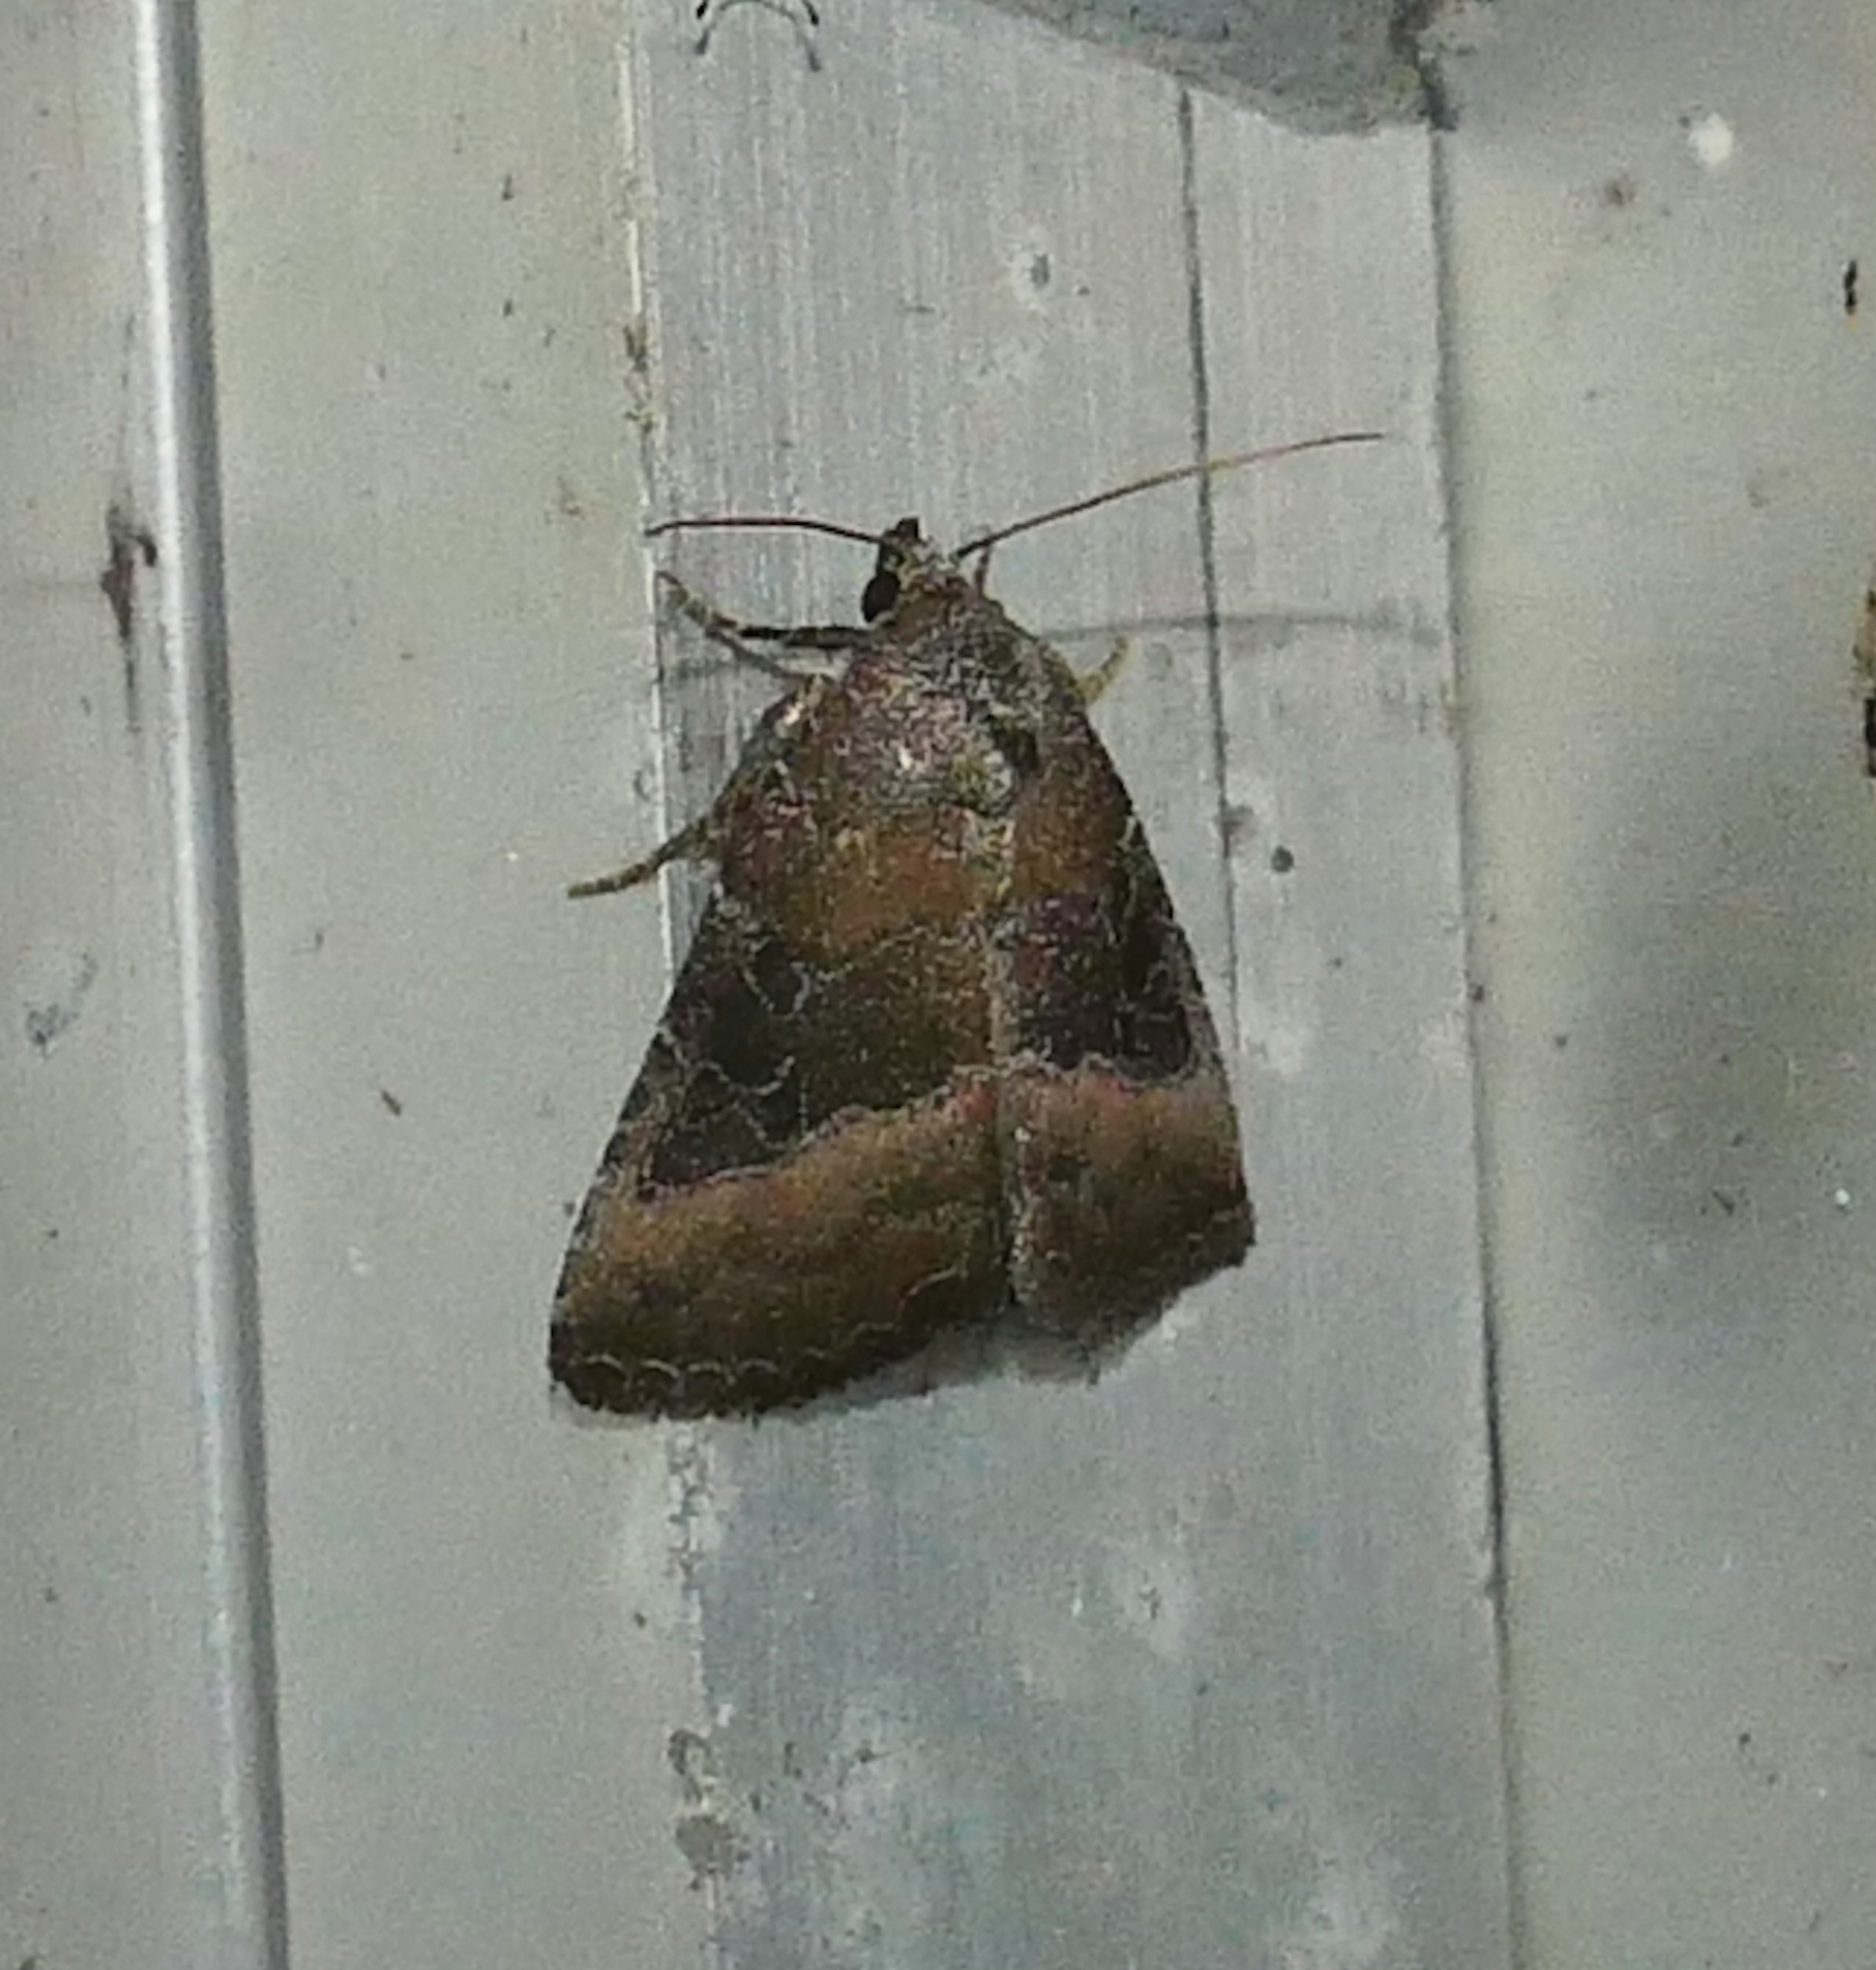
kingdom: Animalia
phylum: Arthropoda
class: Insecta
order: Lepidoptera
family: Noctuidae
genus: Ogdoconta
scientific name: Ogdoconta cinereola
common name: Common pinkband
